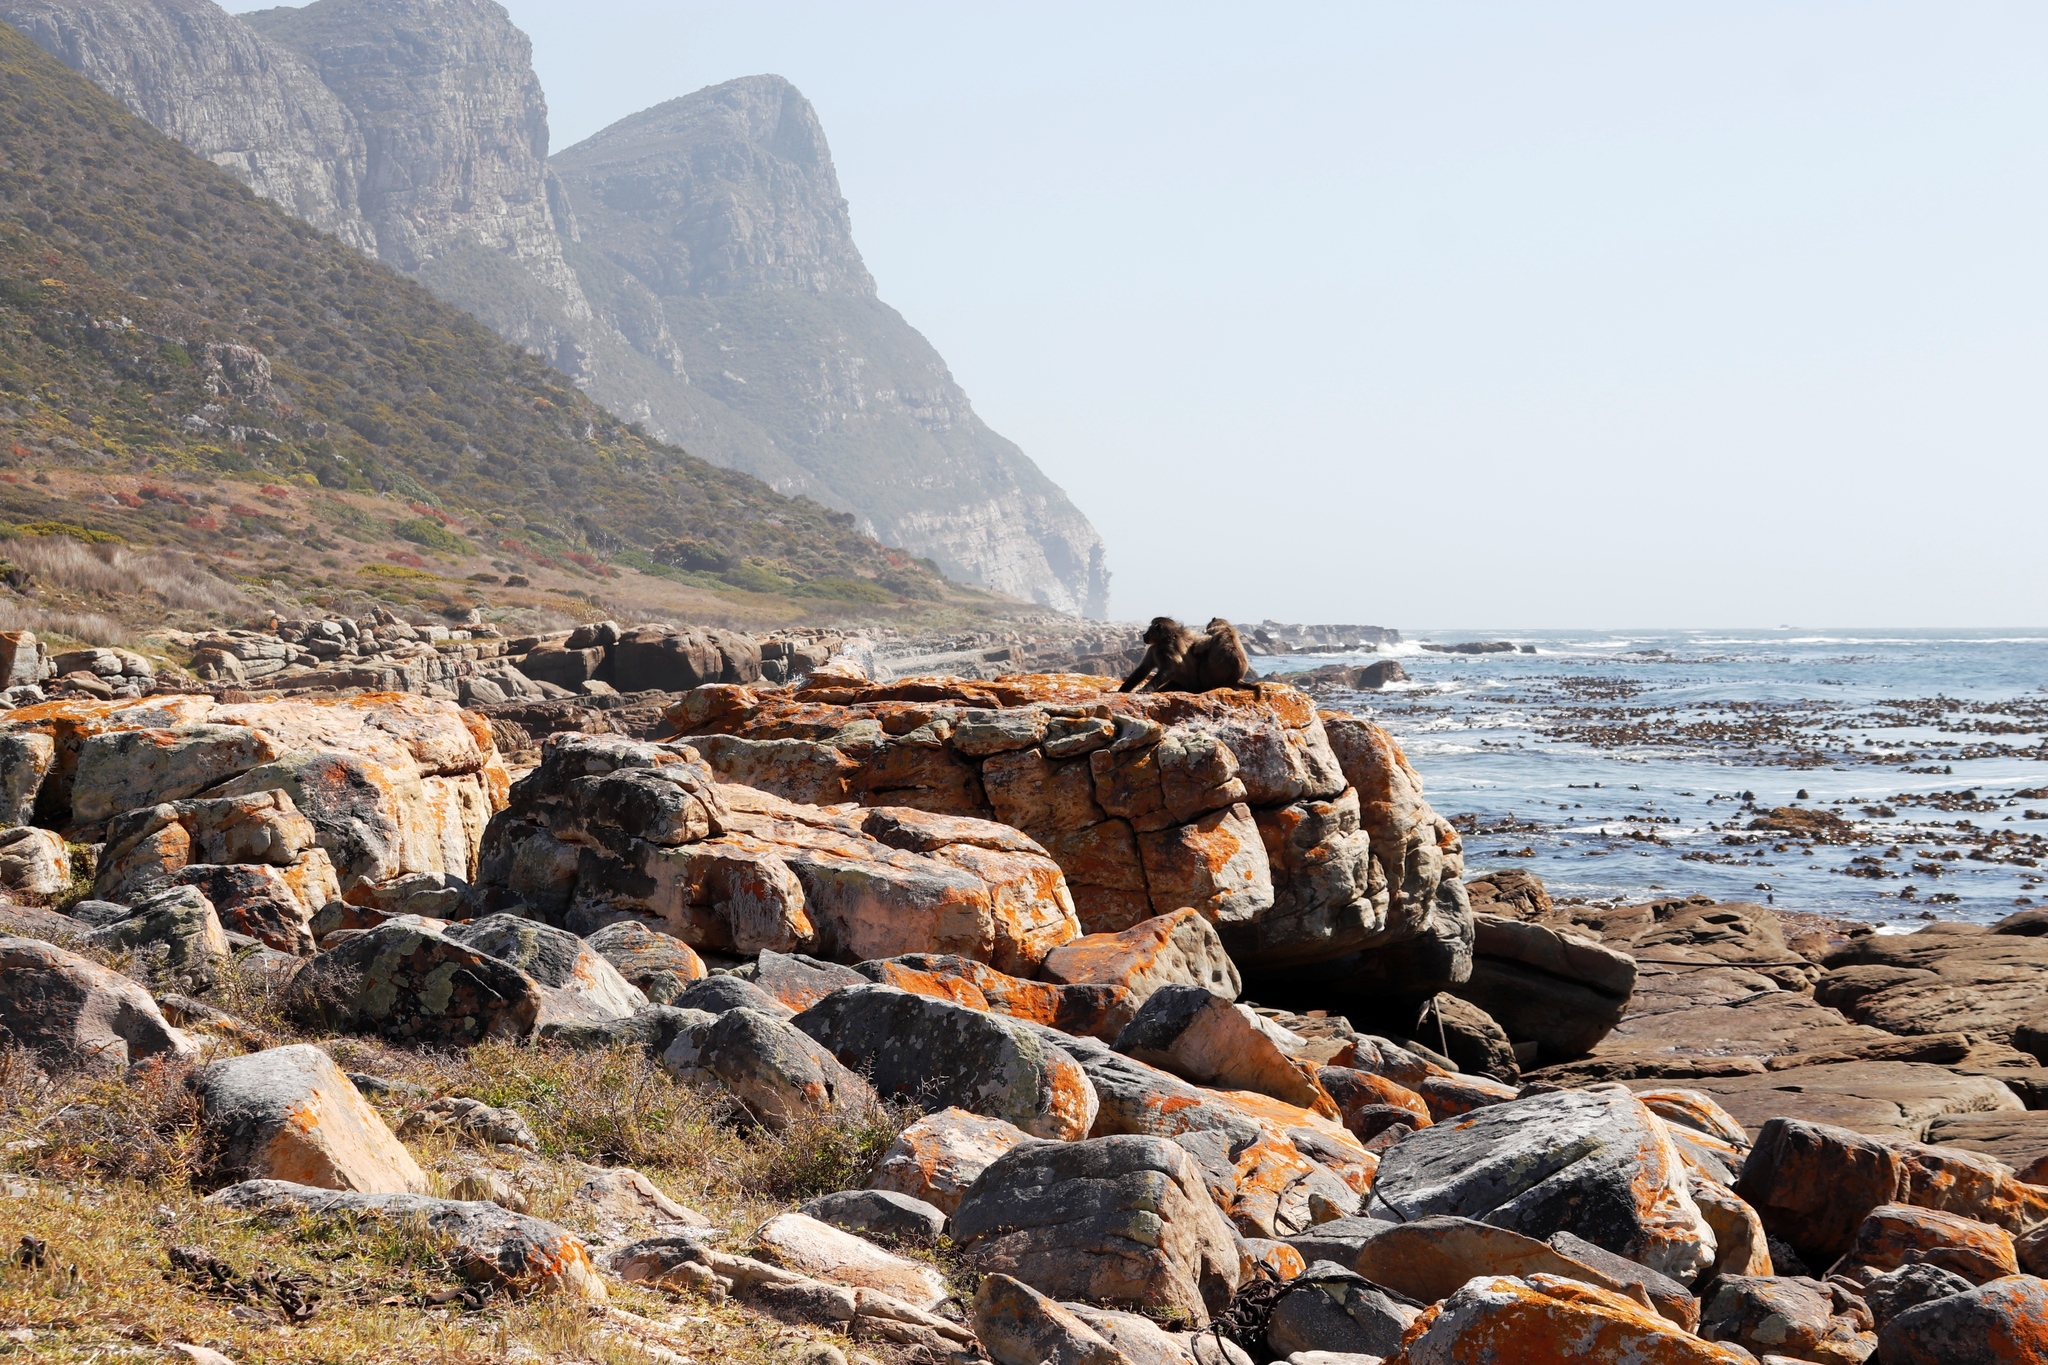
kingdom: Animalia
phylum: Chordata
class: Mammalia
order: Primates
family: Cercopithecidae
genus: Papio
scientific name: Papio ursinus
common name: Chacma baboon
